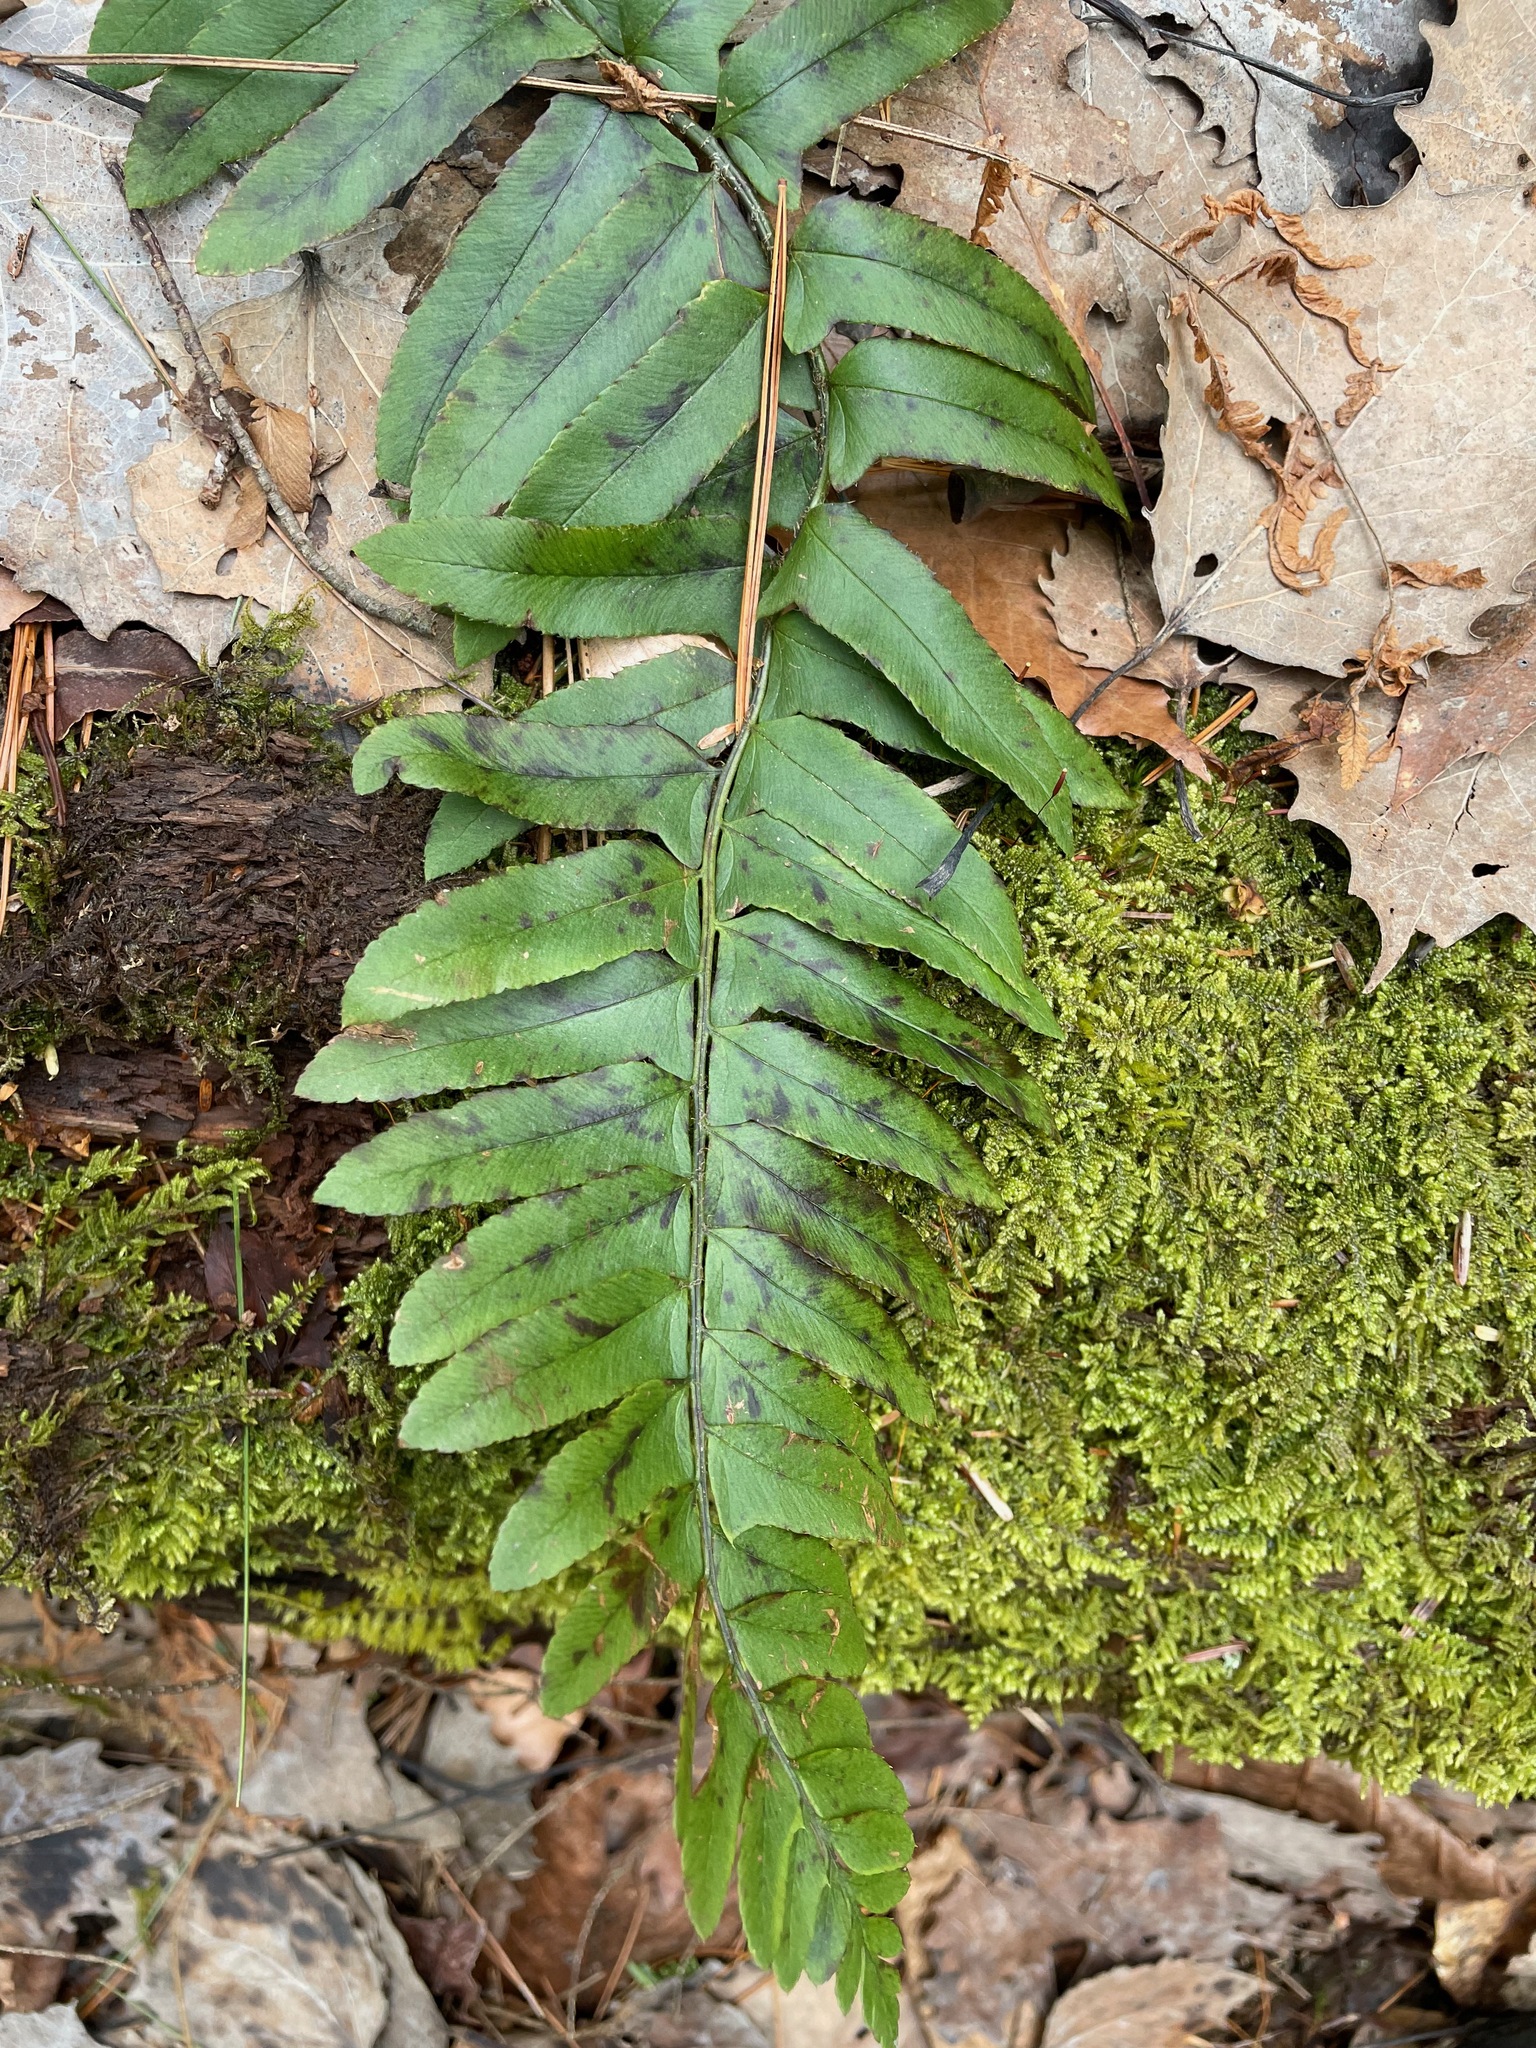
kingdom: Plantae
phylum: Tracheophyta
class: Polypodiopsida
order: Polypodiales
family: Dryopteridaceae
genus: Polystichum
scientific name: Polystichum acrostichoides
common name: Christmas fern
